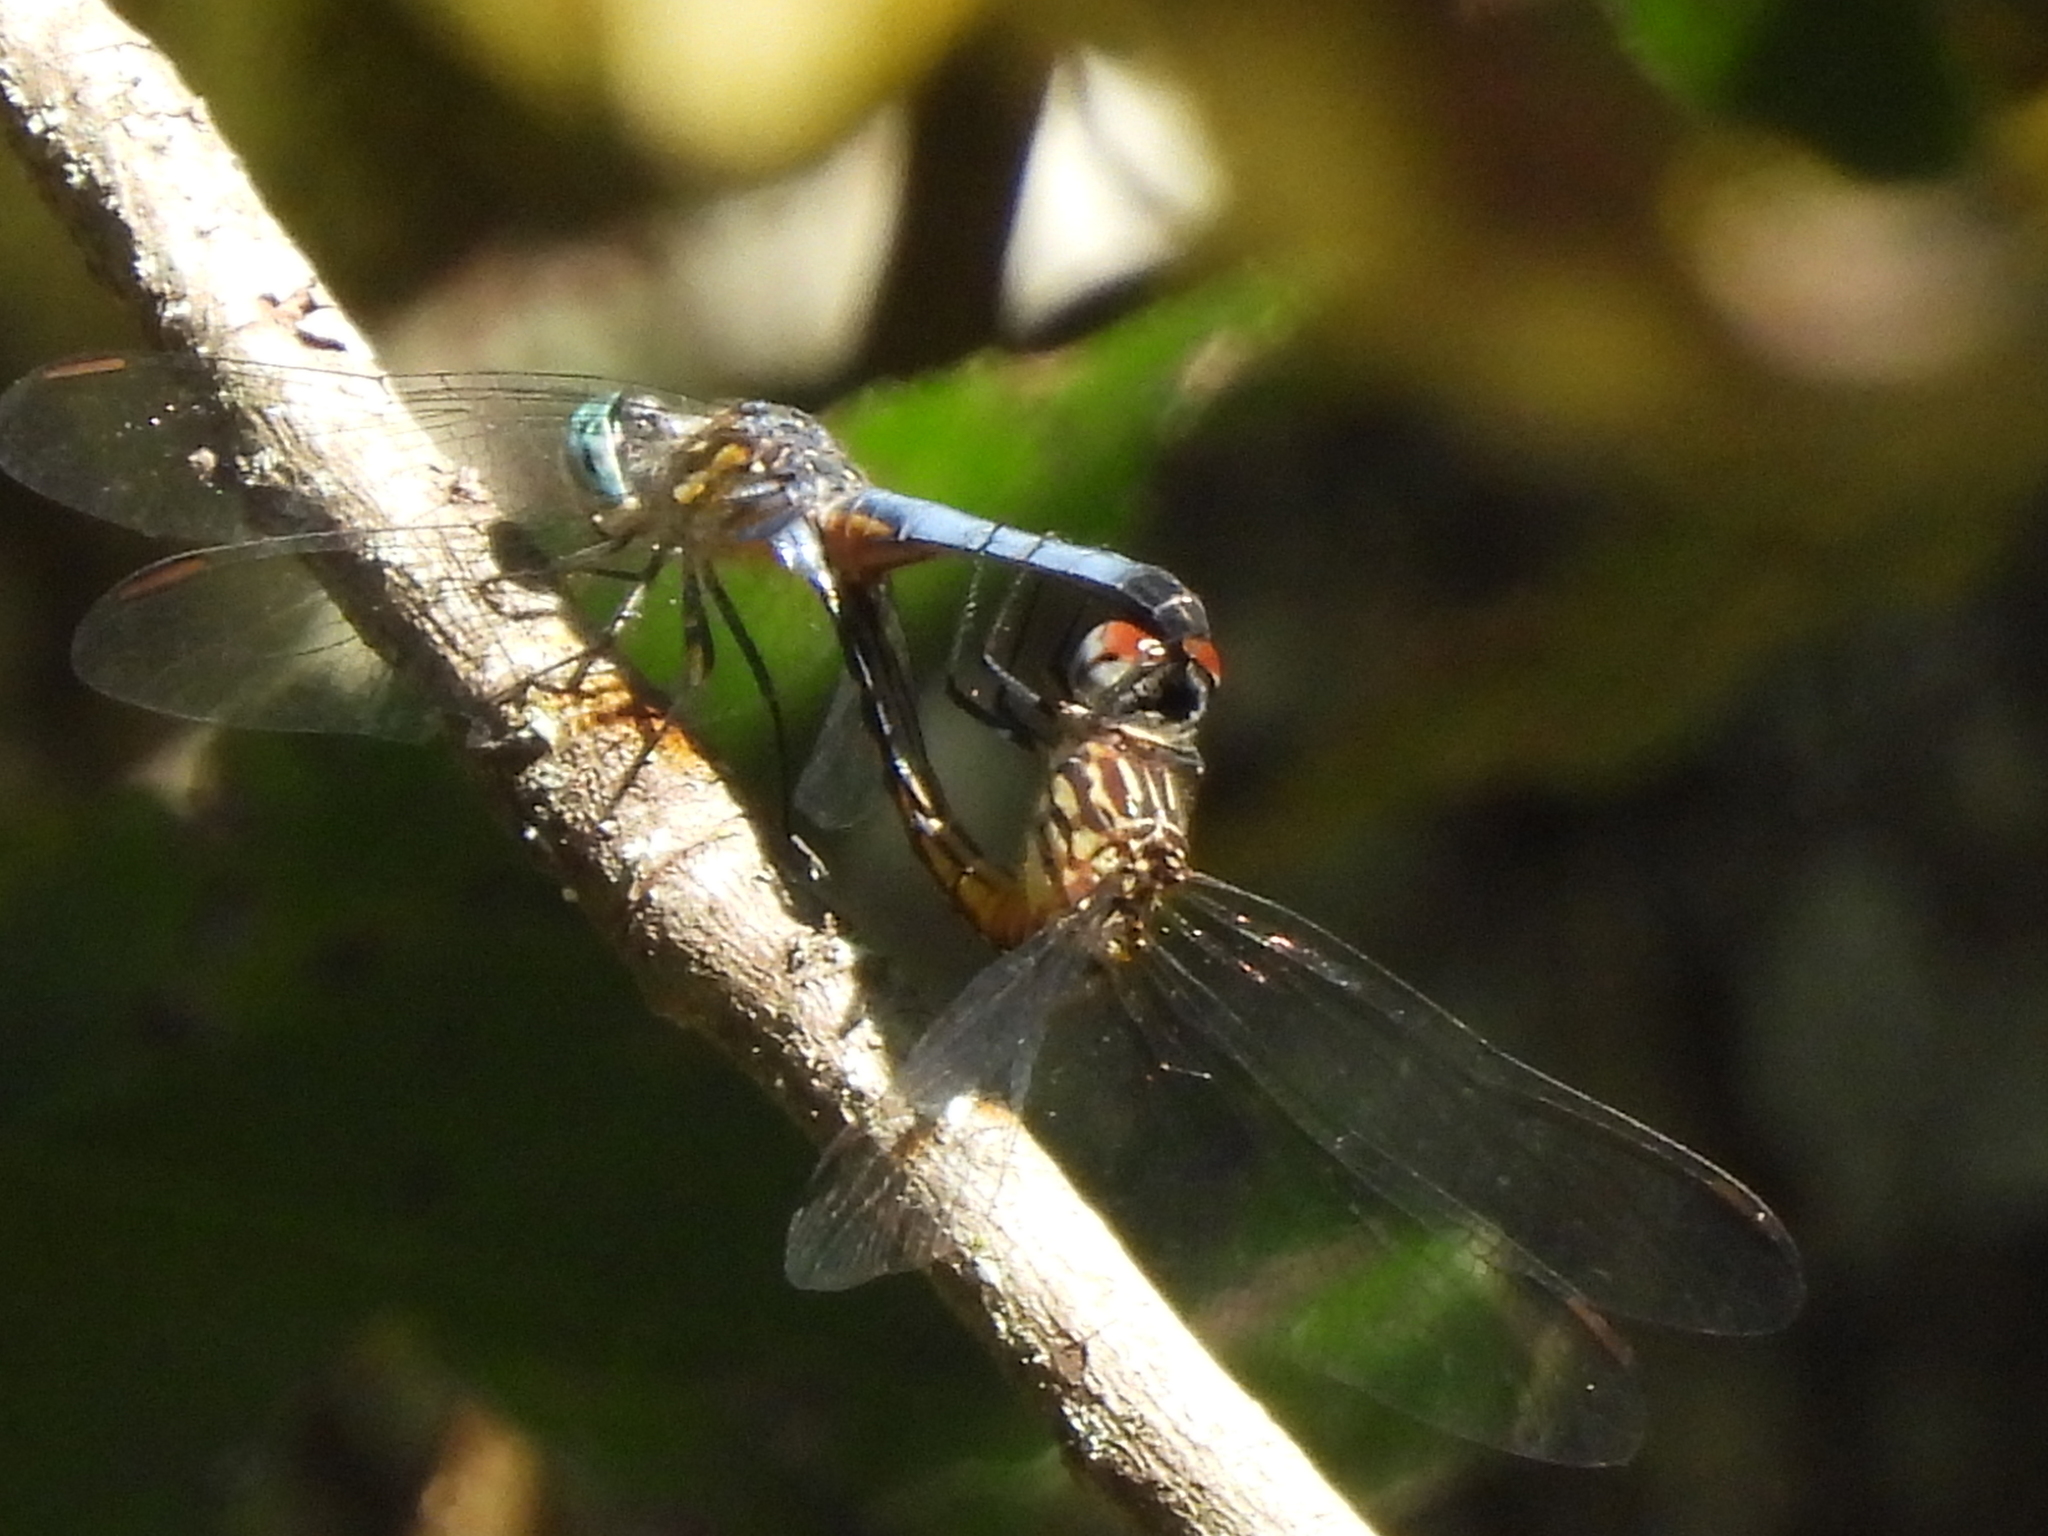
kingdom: Animalia
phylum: Arthropoda
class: Insecta
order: Odonata
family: Libellulidae
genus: Pachydiplax
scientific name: Pachydiplax longipennis
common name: Blue dasher
